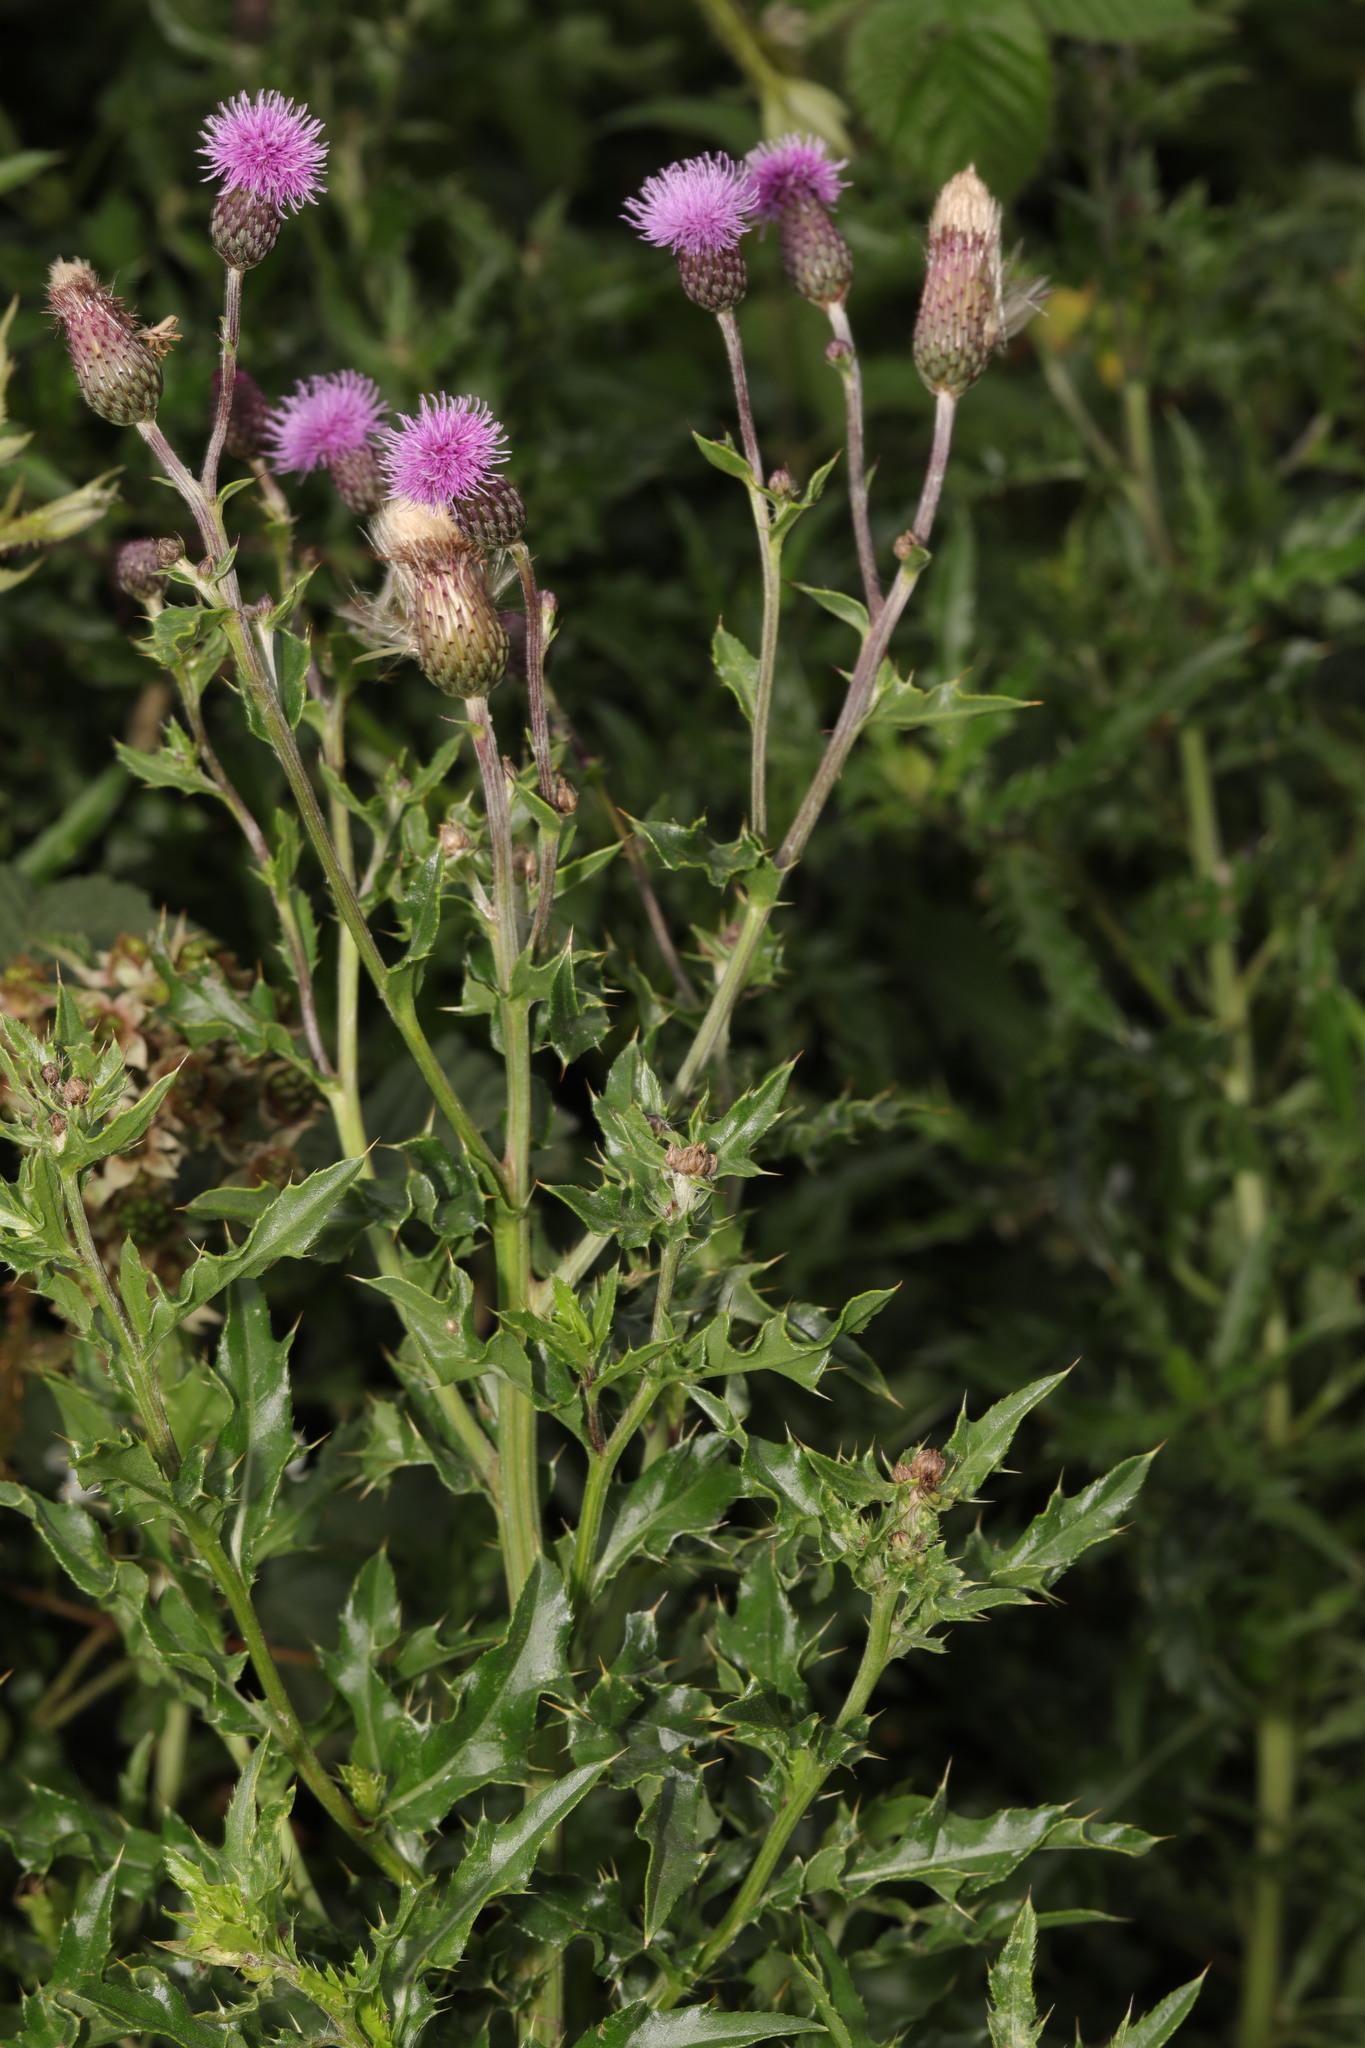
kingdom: Plantae
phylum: Tracheophyta
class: Magnoliopsida
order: Asterales
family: Asteraceae
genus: Cirsium
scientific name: Cirsium arvense
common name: Creeping thistle
